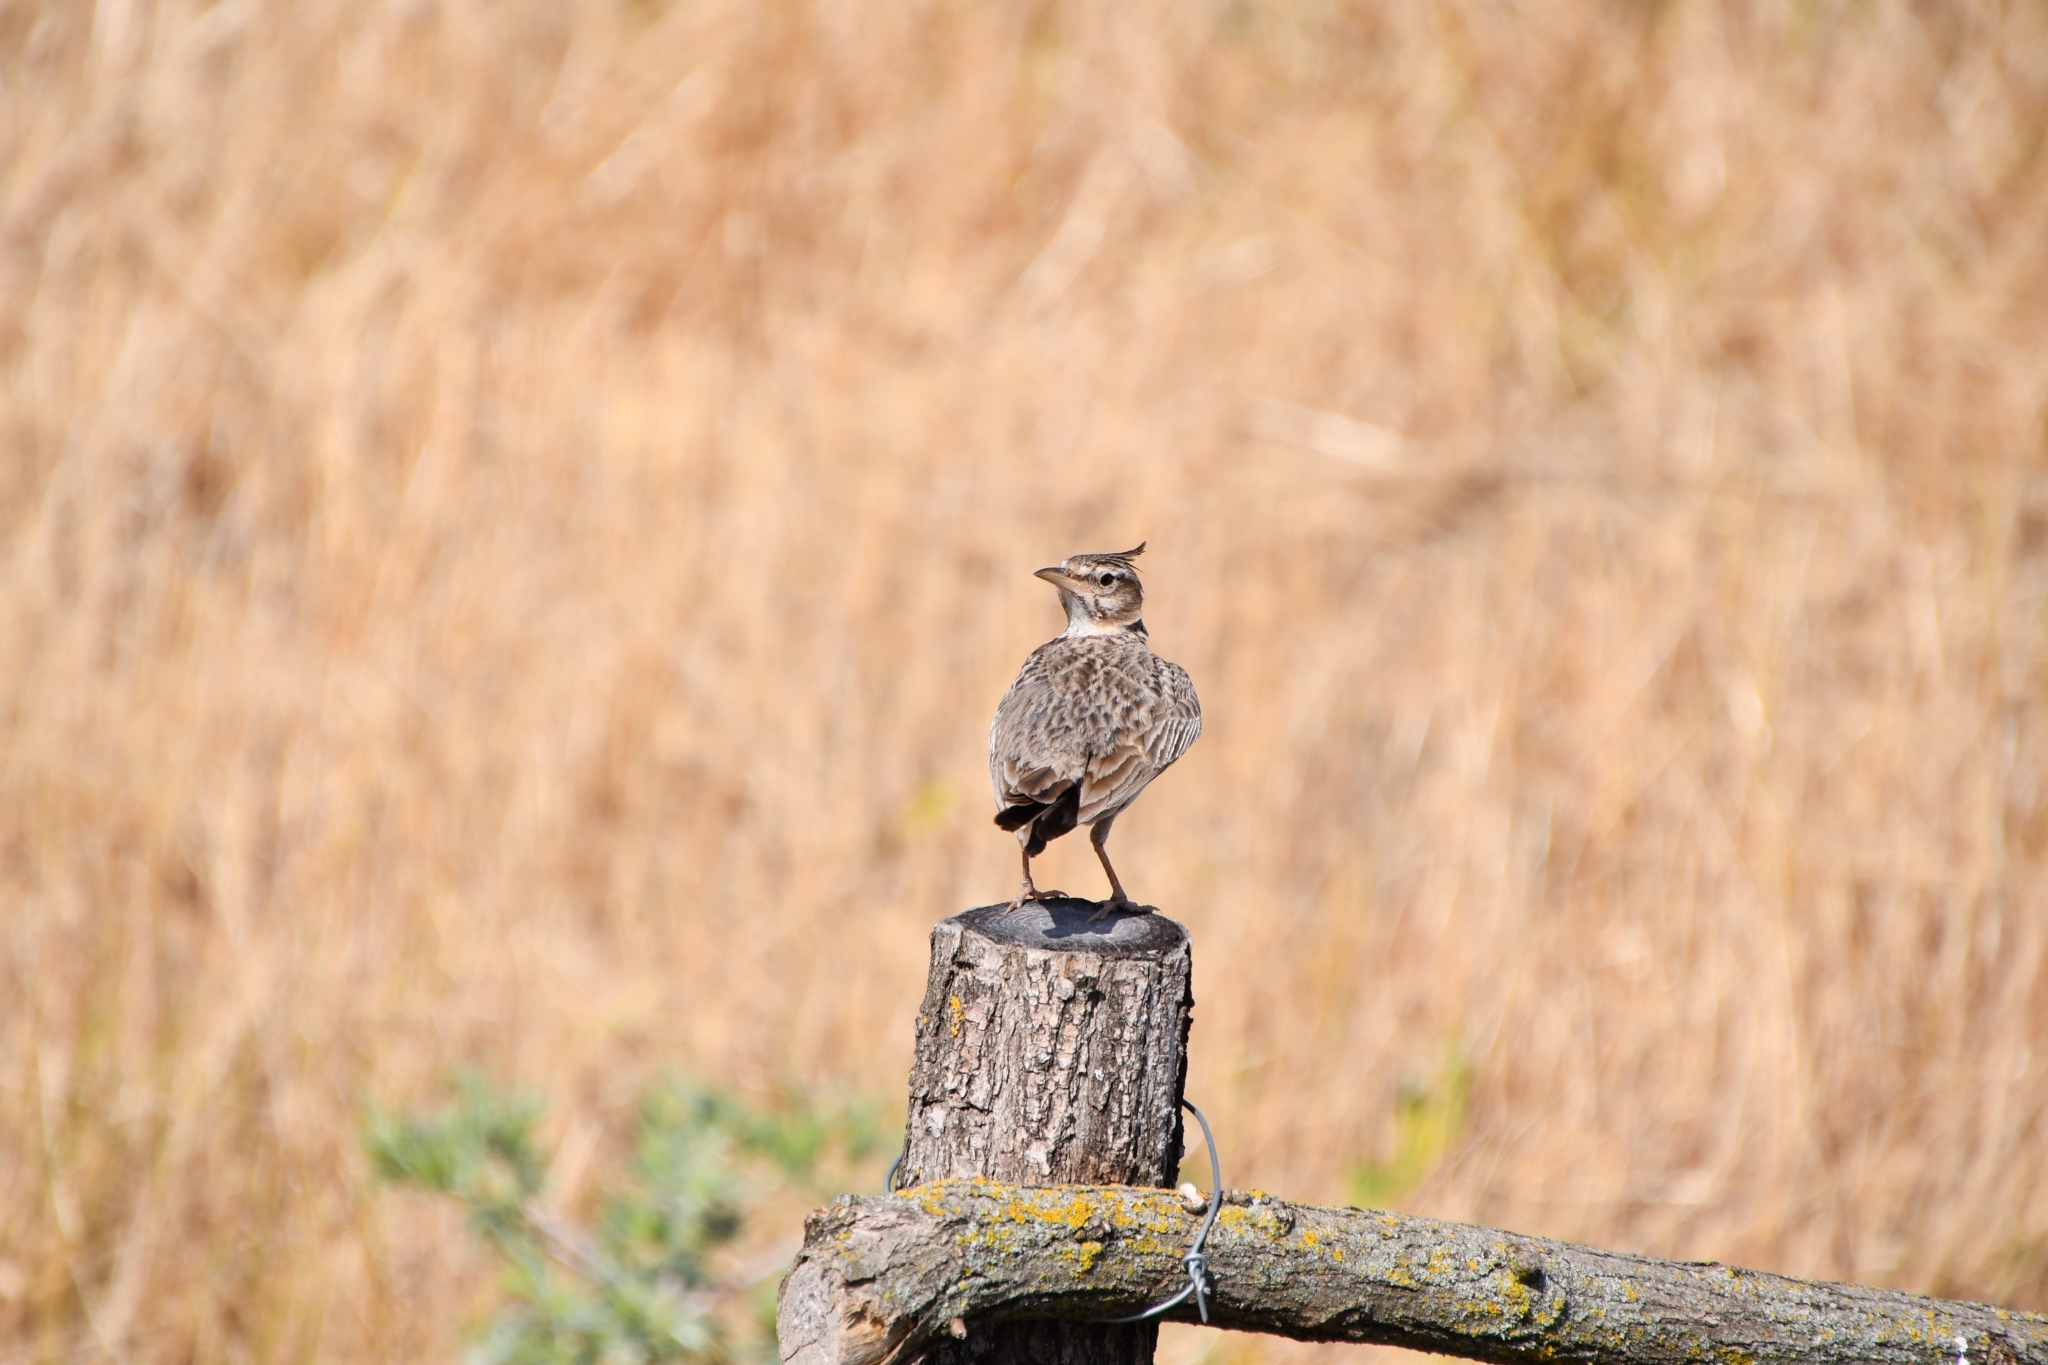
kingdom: Animalia
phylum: Chordata
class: Aves
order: Passeriformes
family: Alaudidae
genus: Galerida
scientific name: Galerida cristata
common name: Crested lark
